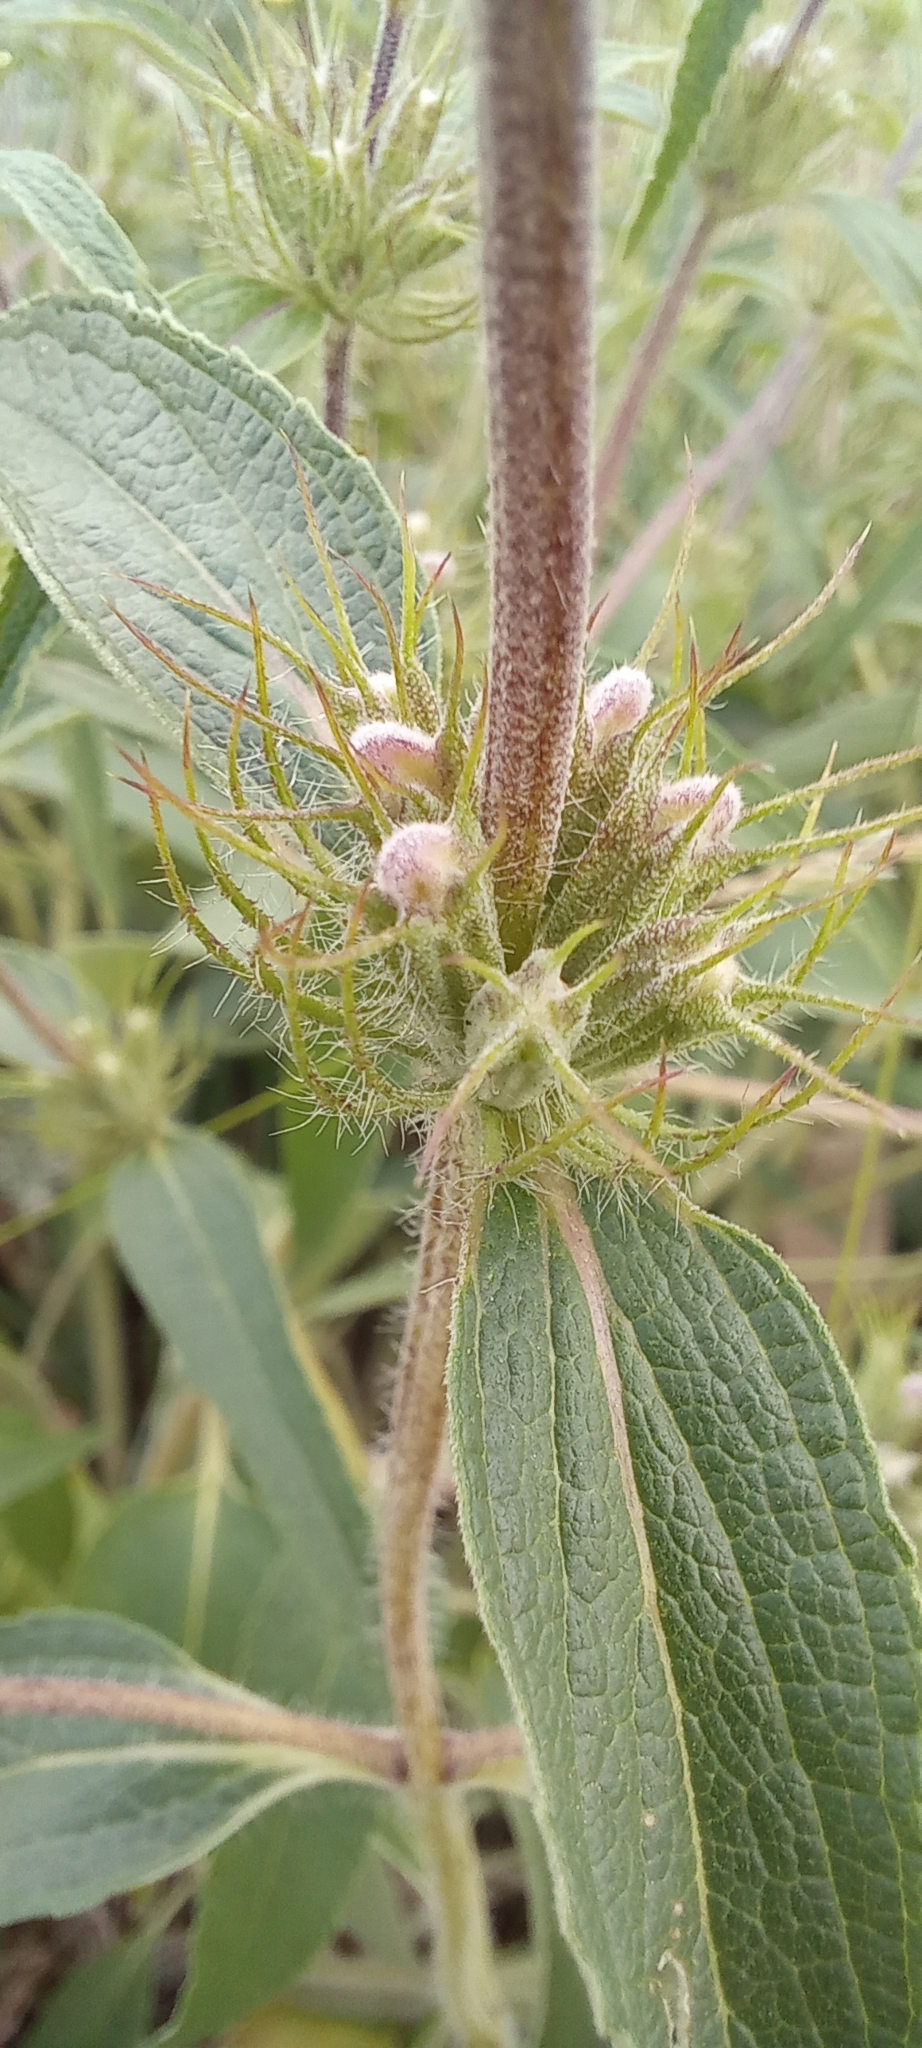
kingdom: Plantae
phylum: Tracheophyta
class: Magnoliopsida
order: Lamiales
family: Lamiaceae
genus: Phlomis
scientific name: Phlomis herba-venti
